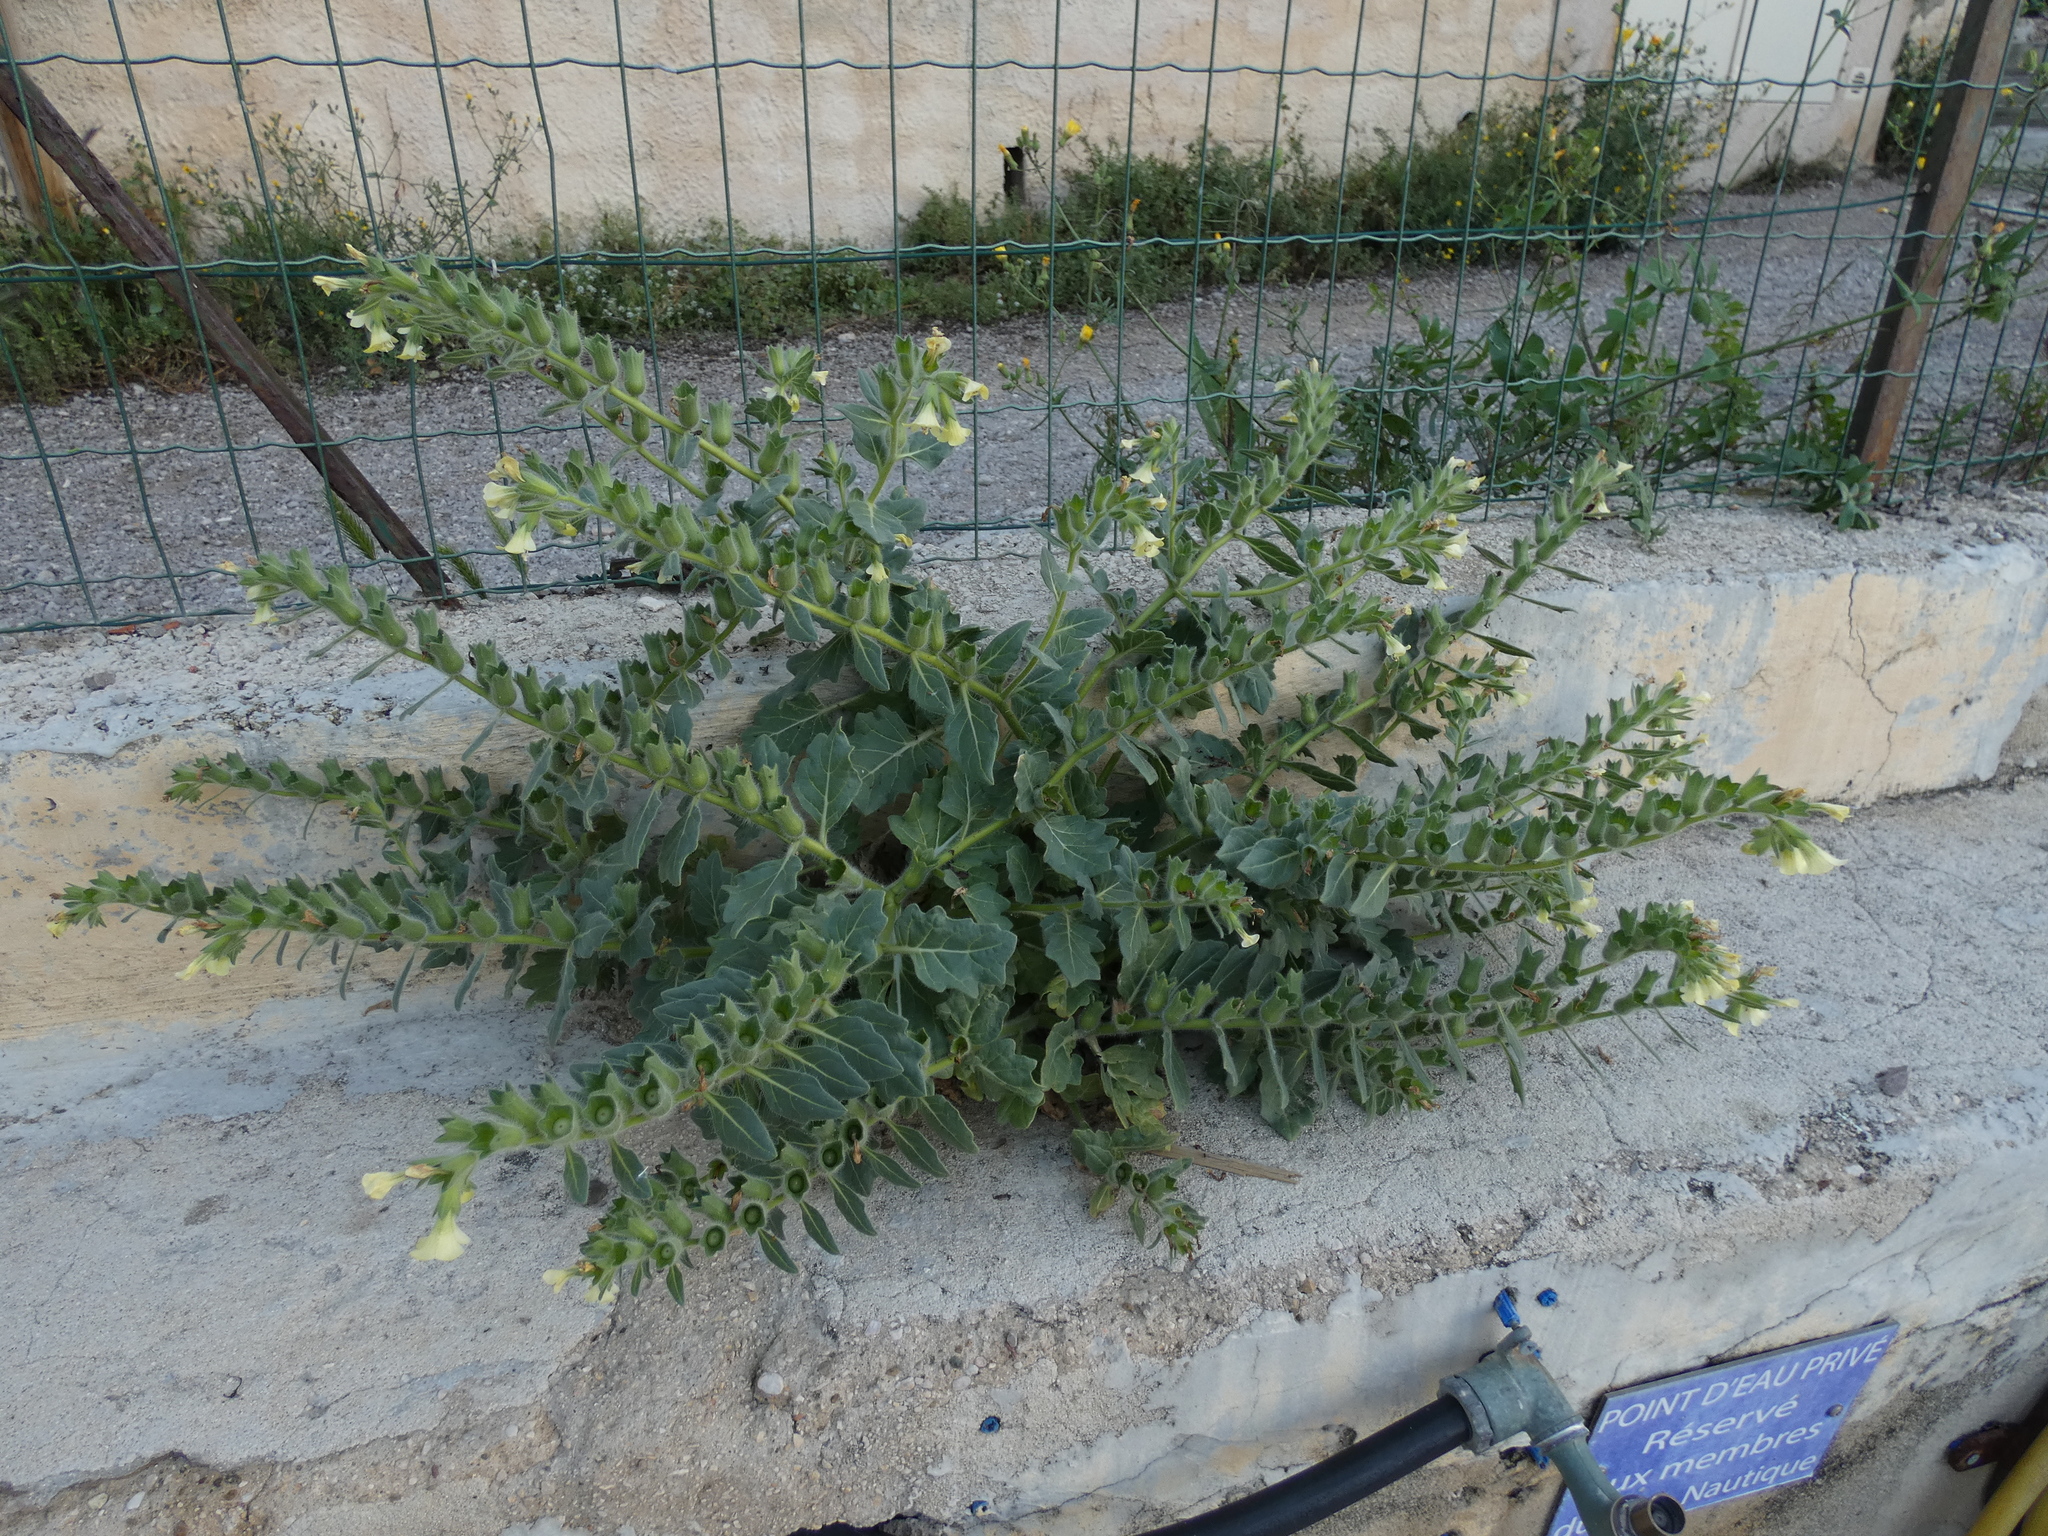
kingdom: Plantae
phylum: Tracheophyta
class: Magnoliopsida
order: Solanales
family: Solanaceae
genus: Hyoscyamus
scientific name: Hyoscyamus albus
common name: White henbane
